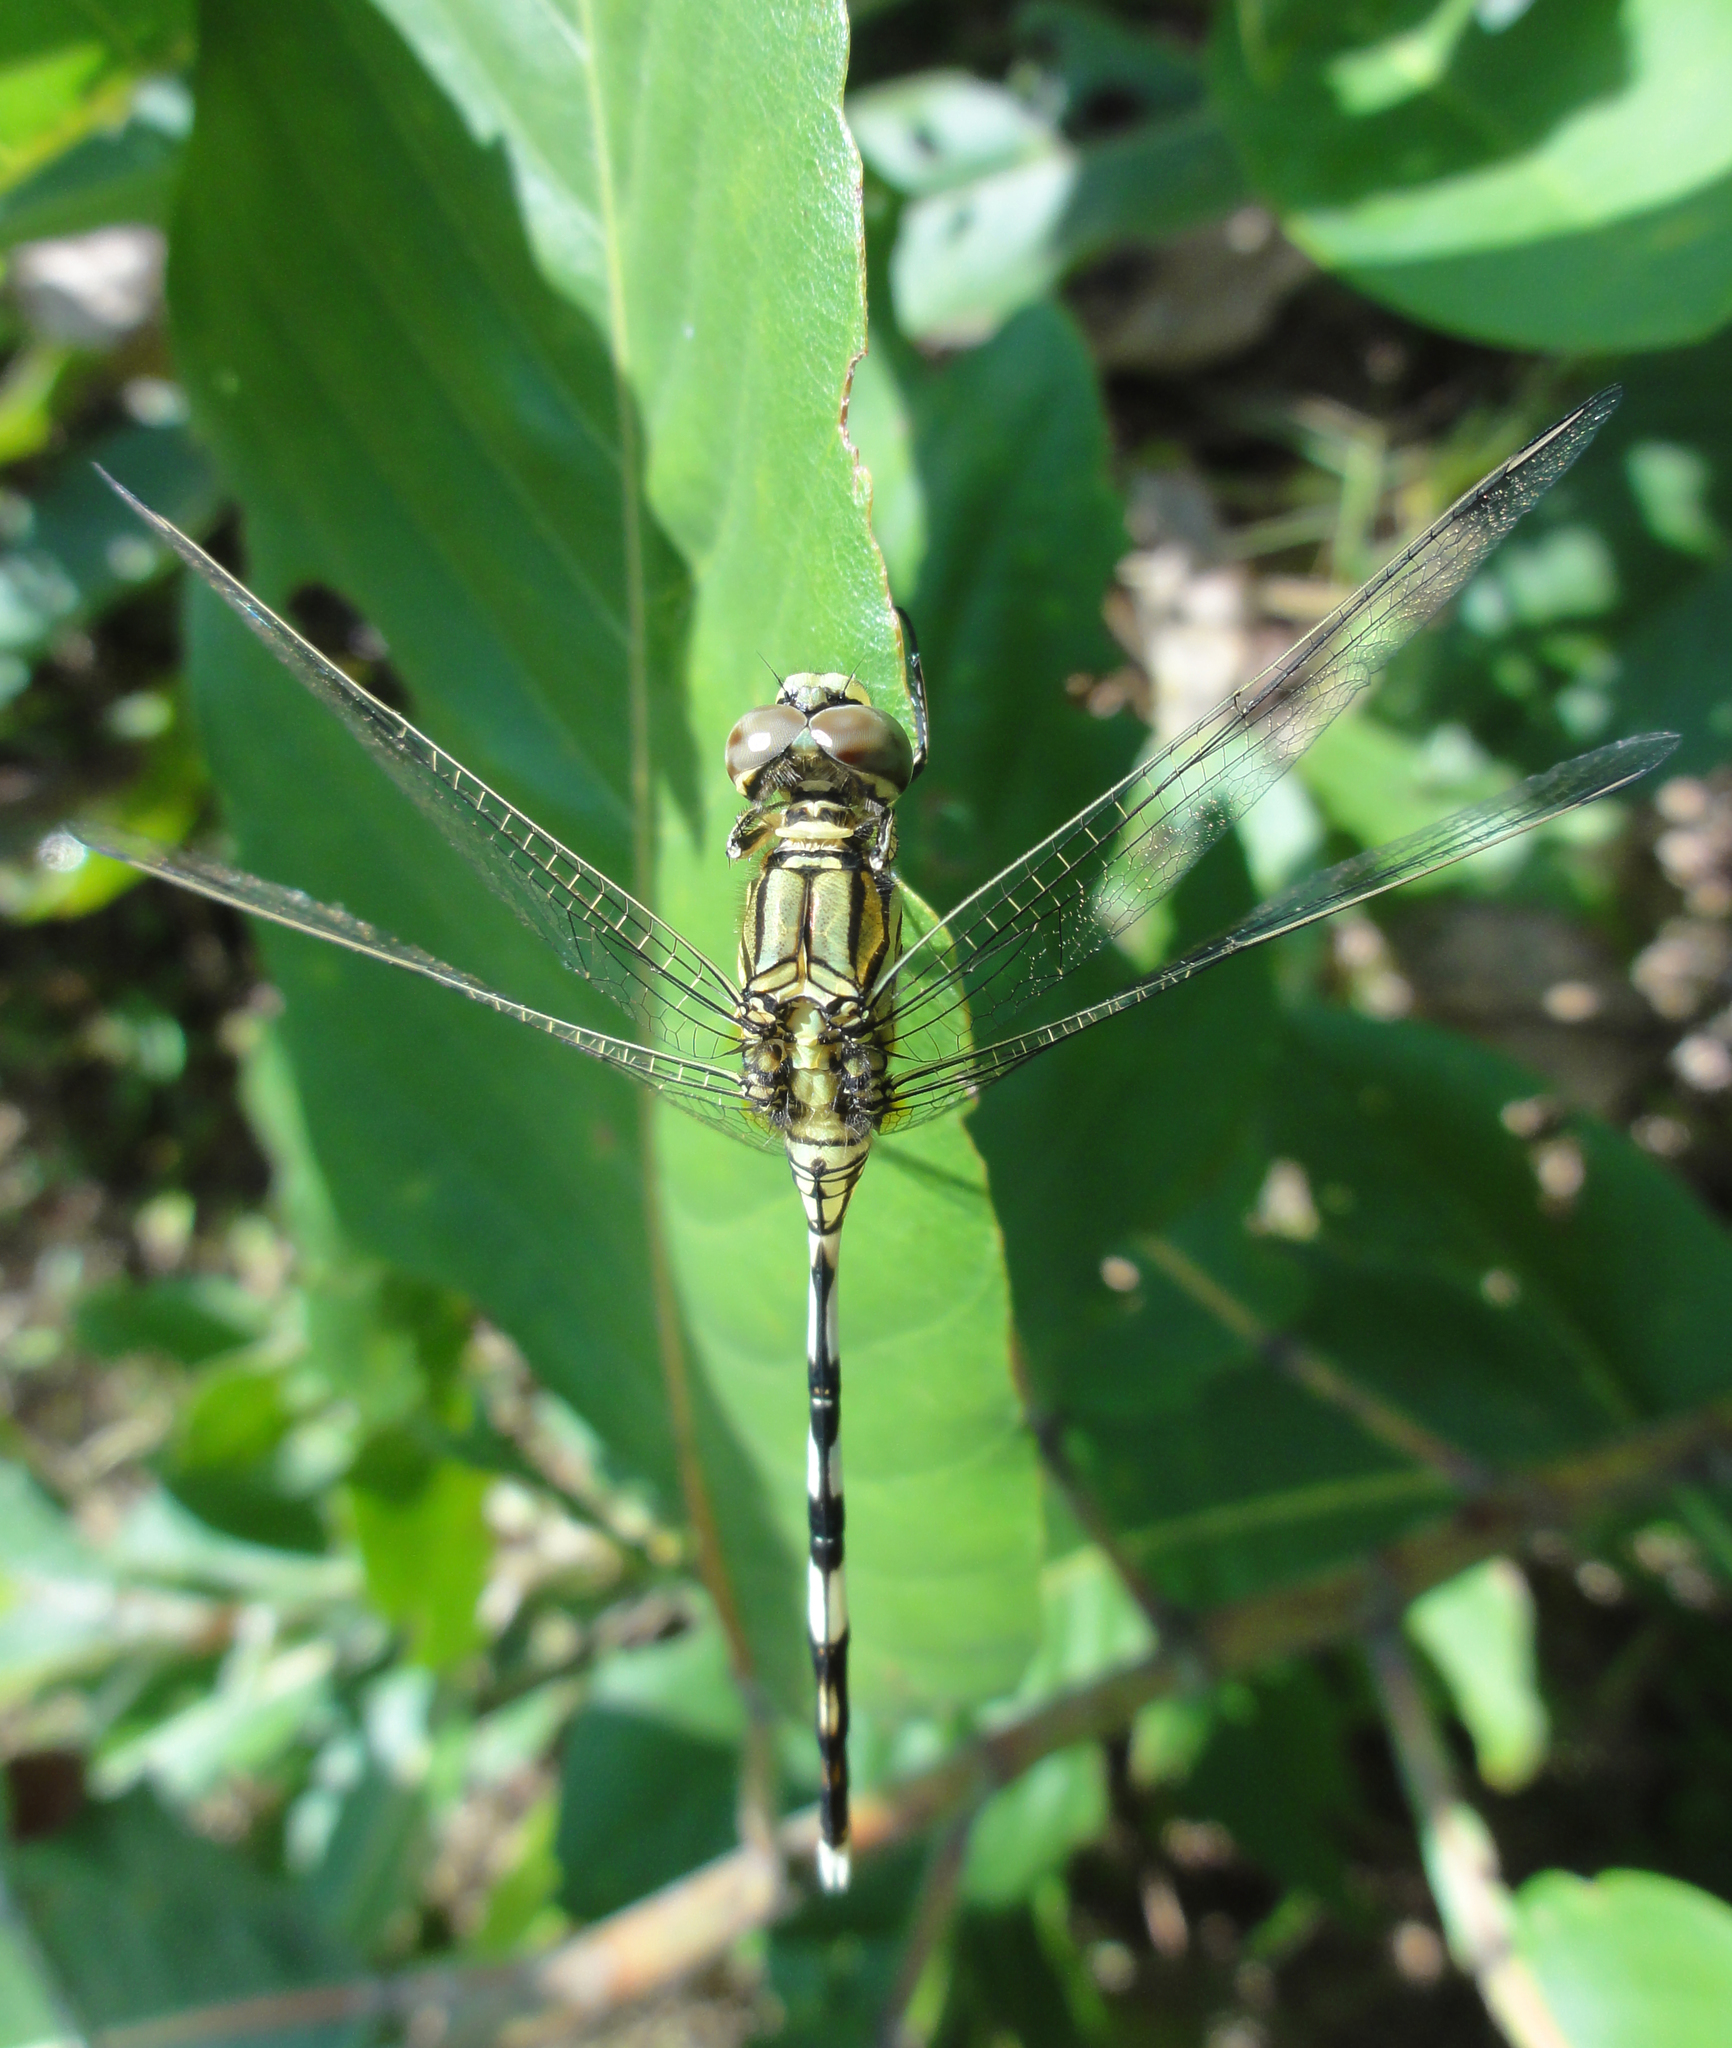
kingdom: Animalia
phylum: Arthropoda
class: Insecta
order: Odonata
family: Libellulidae
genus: Orthetrum
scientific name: Orthetrum sabina
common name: Slender skimmer
